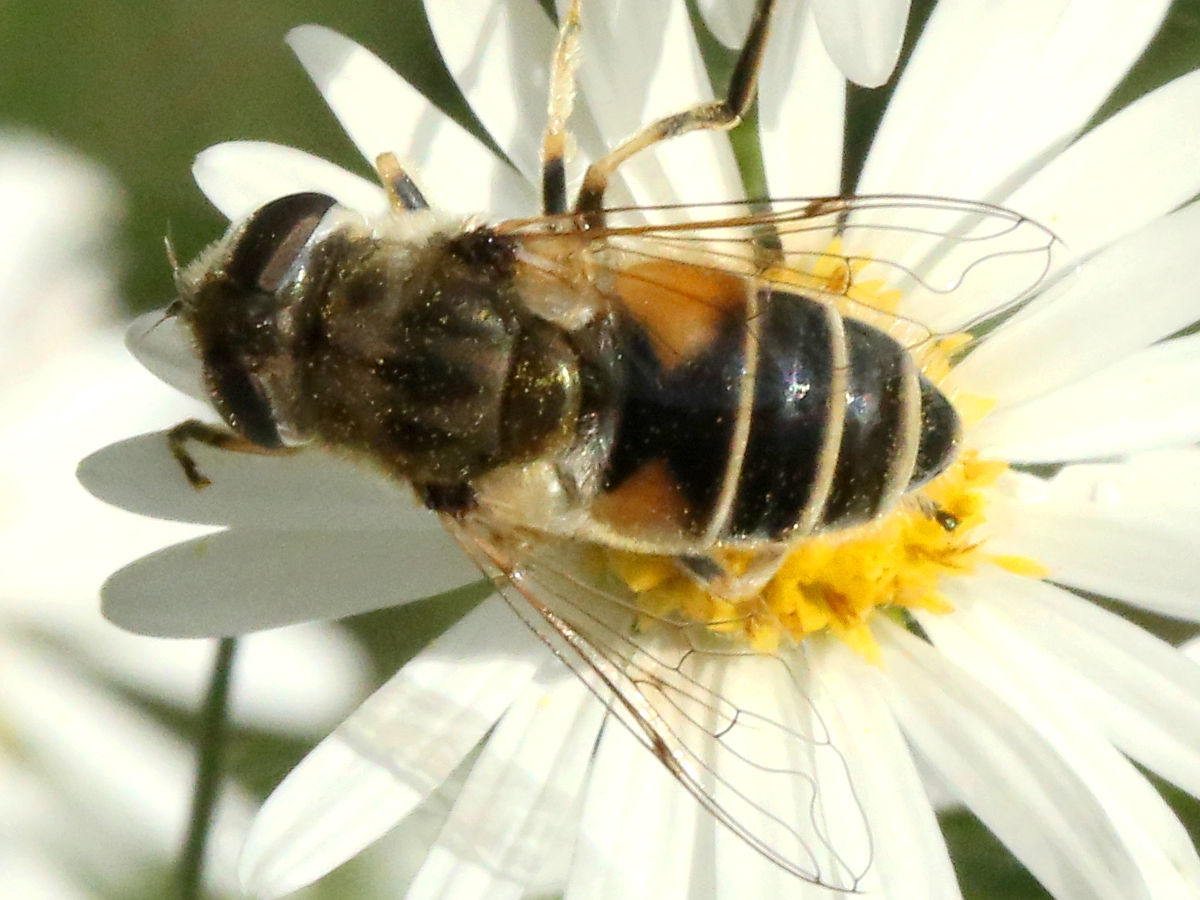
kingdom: Animalia
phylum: Arthropoda
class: Insecta
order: Diptera
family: Syrphidae
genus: Eristalis
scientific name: Eristalis arbustorum
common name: Hover fly
